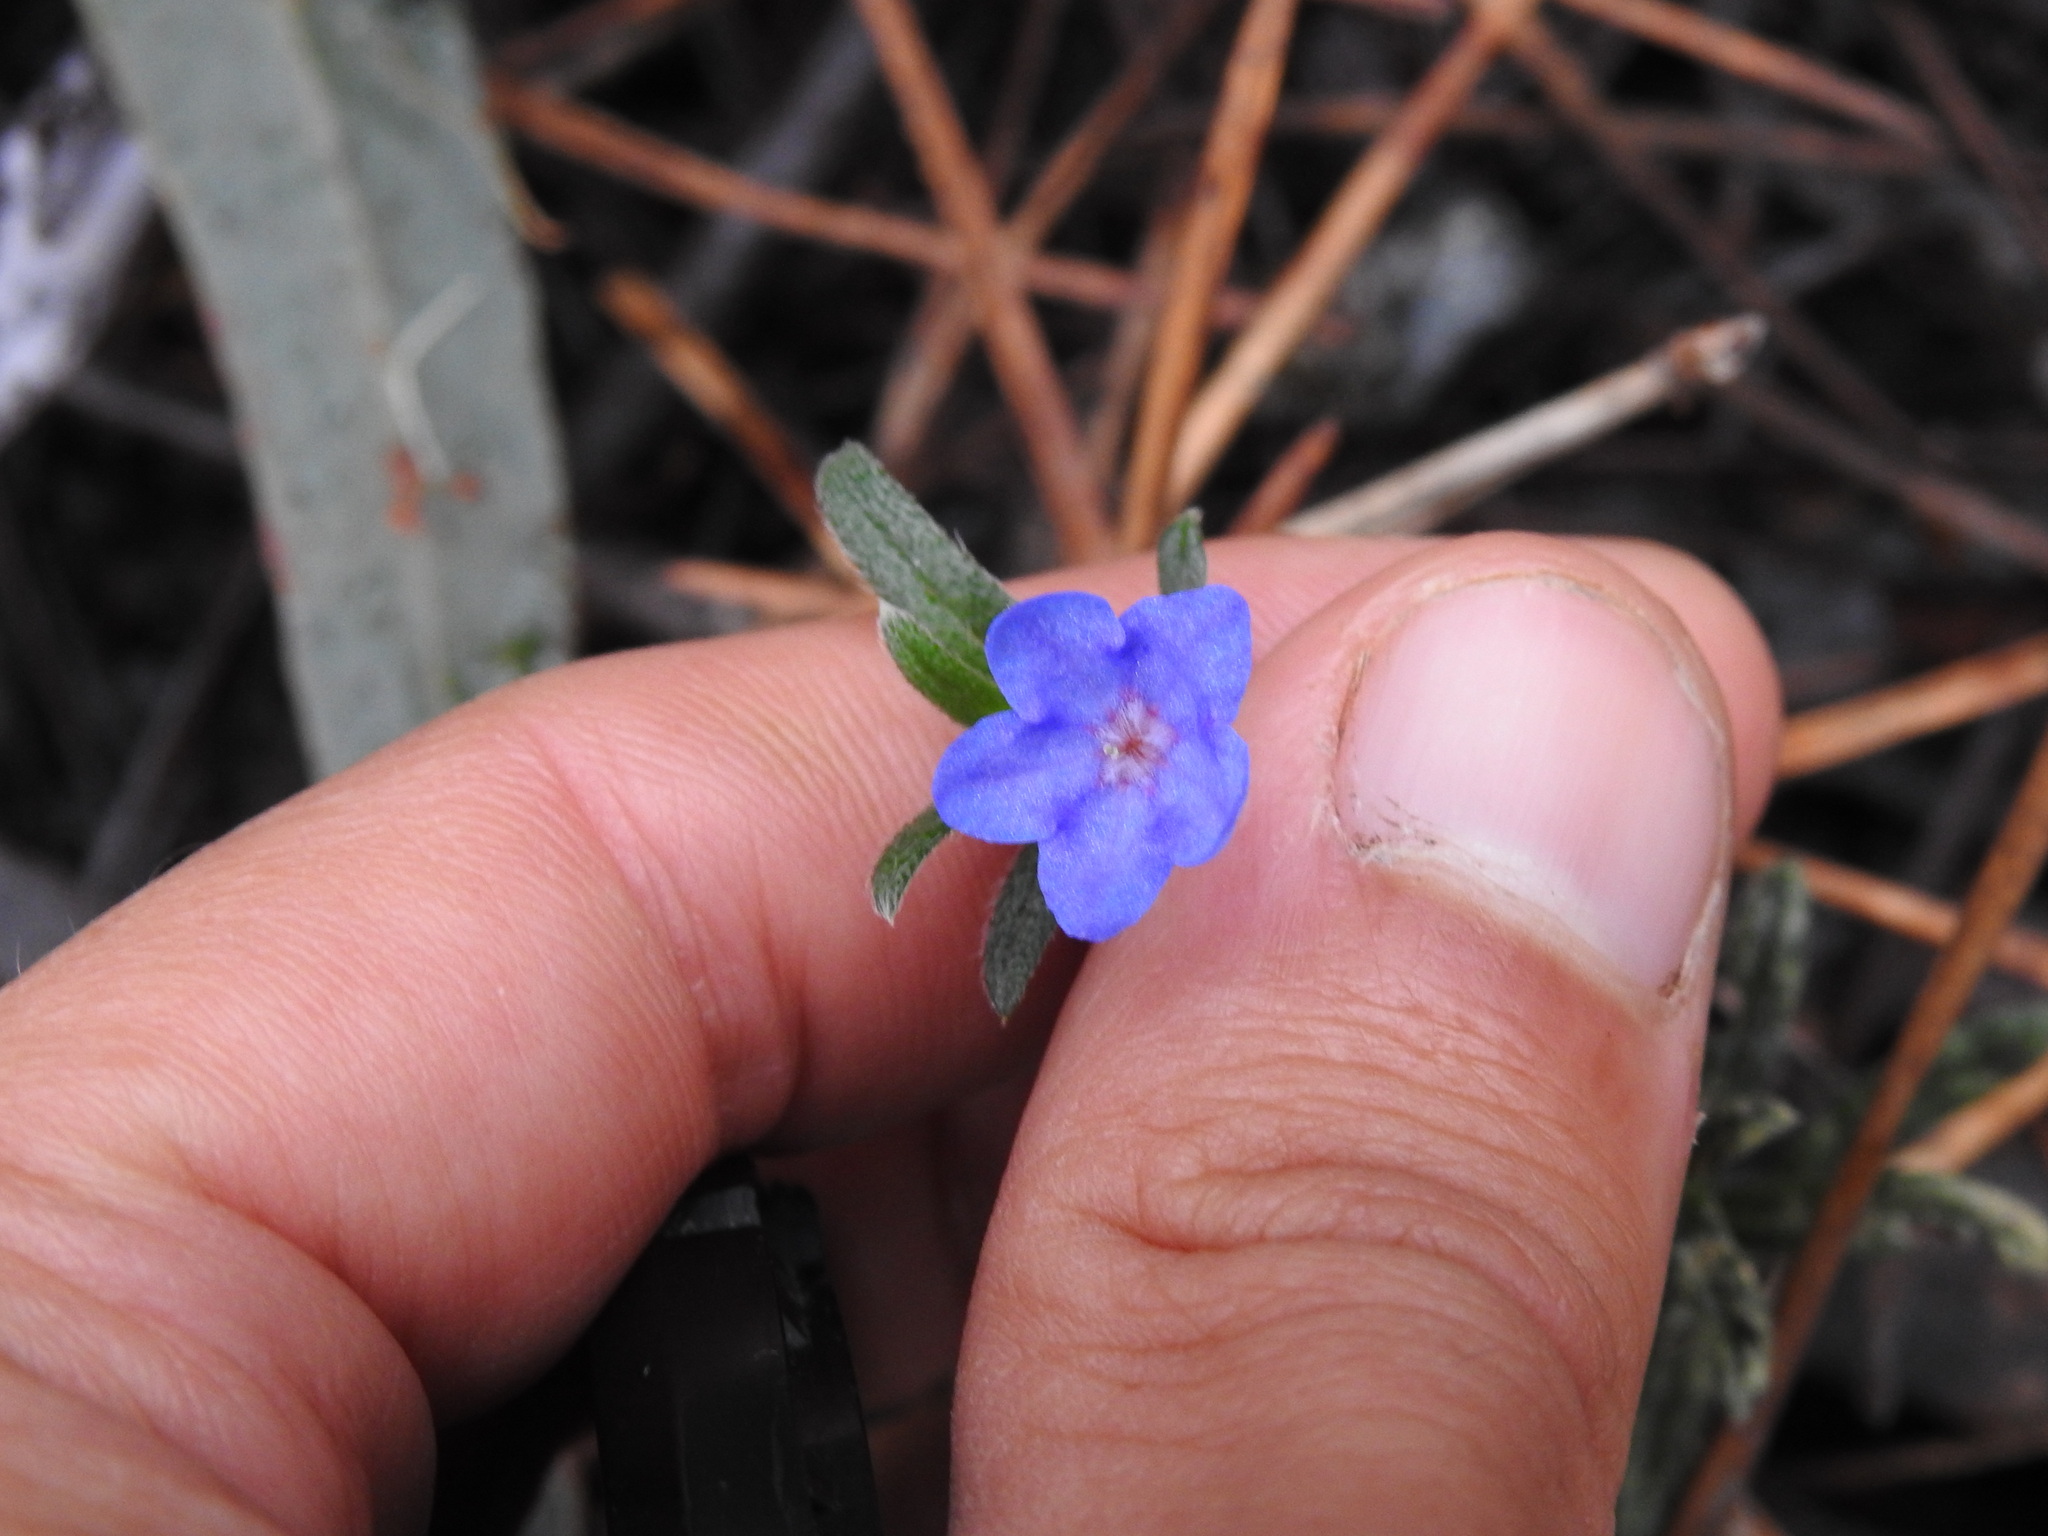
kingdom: Plantae
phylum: Tracheophyta
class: Magnoliopsida
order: Boraginales
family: Boraginaceae
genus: Glandora
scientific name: Glandora prostrata
